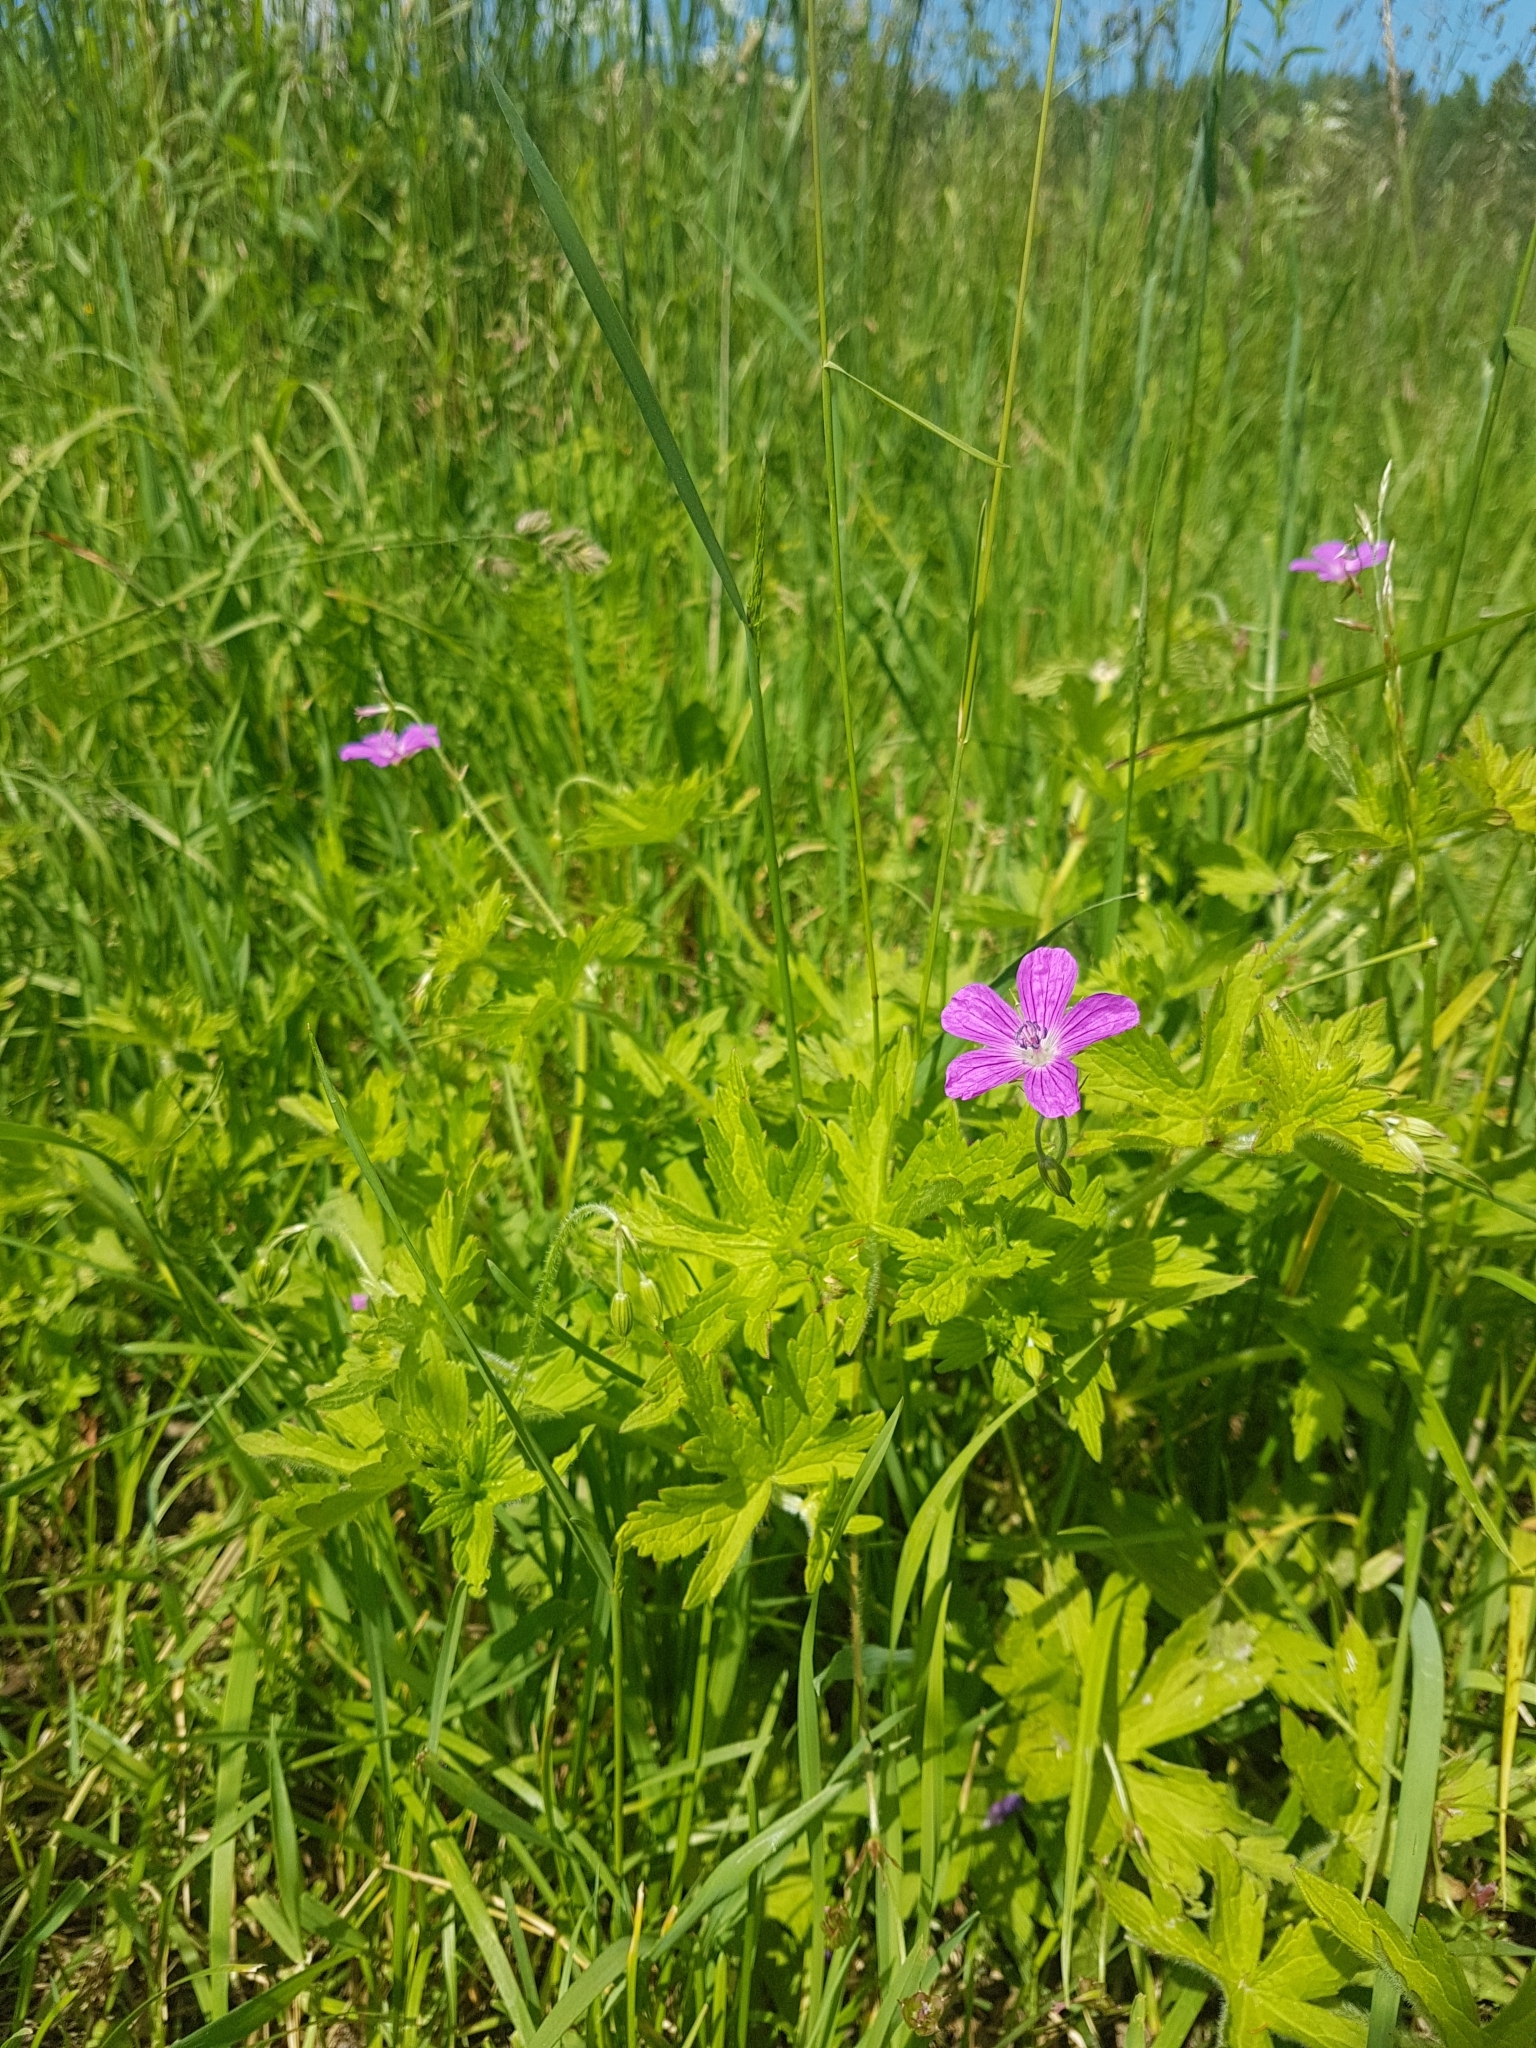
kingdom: Plantae
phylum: Tracheophyta
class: Magnoliopsida
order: Geraniales
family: Geraniaceae
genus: Geranium
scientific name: Geranium palustre
